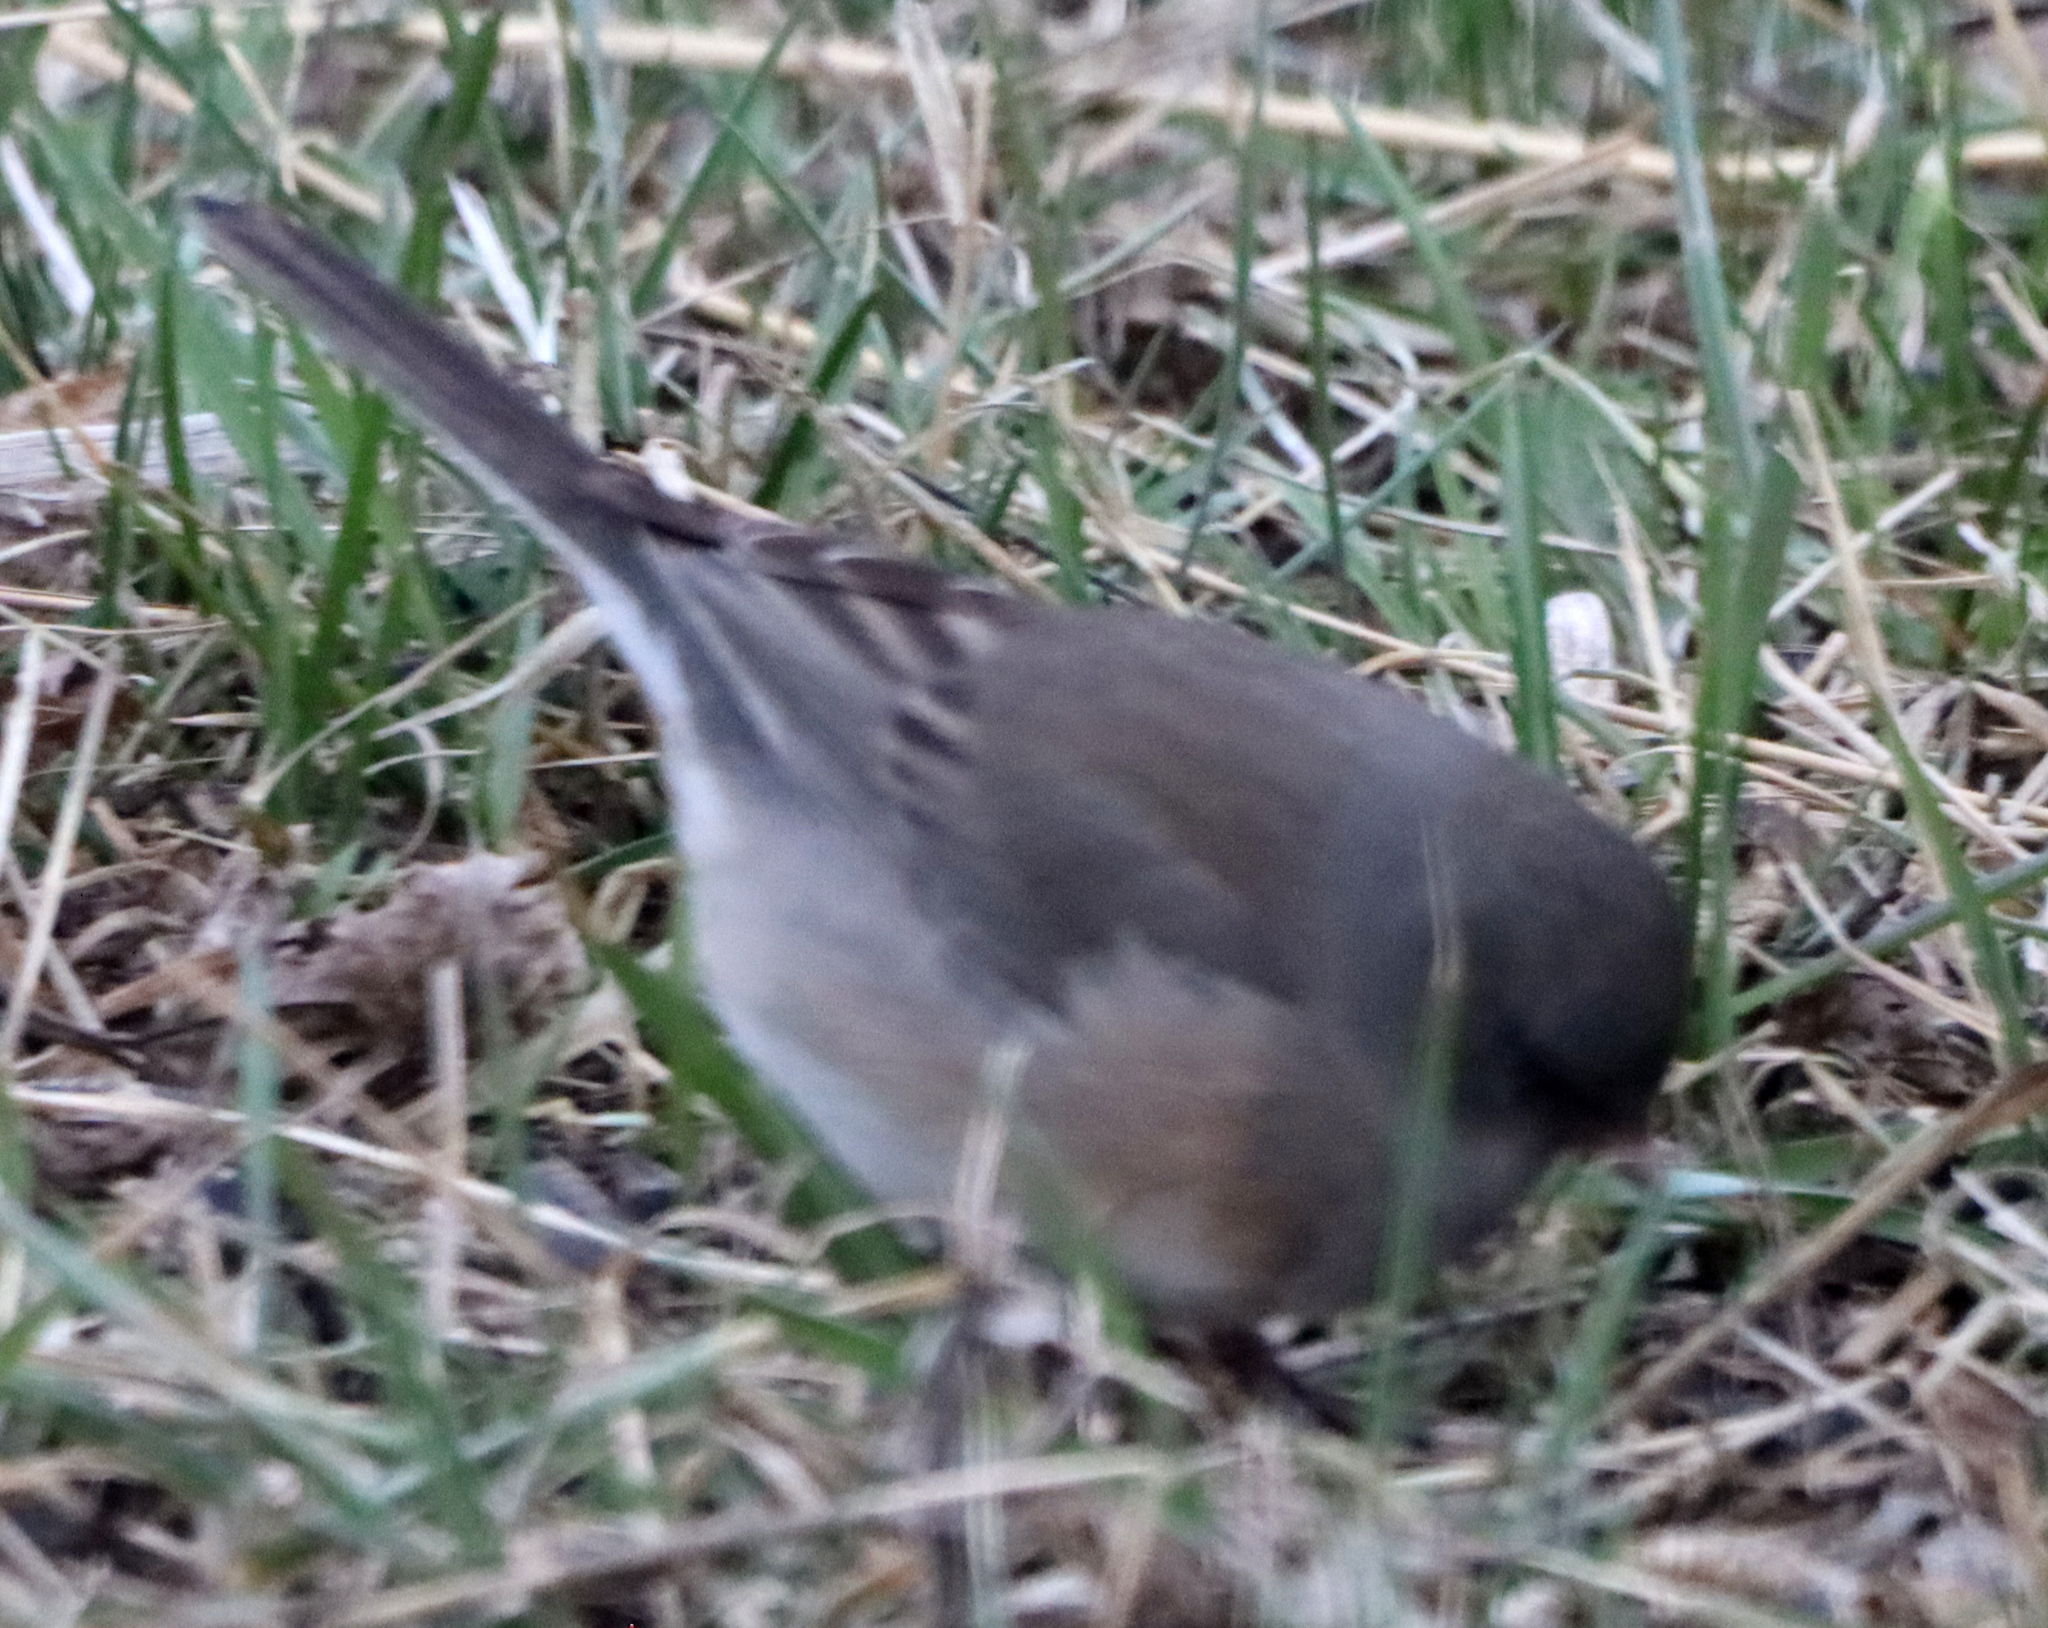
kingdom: Animalia
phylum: Chordata
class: Aves
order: Passeriformes
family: Passerellidae
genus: Junco
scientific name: Junco hyemalis
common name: Dark-eyed junco
